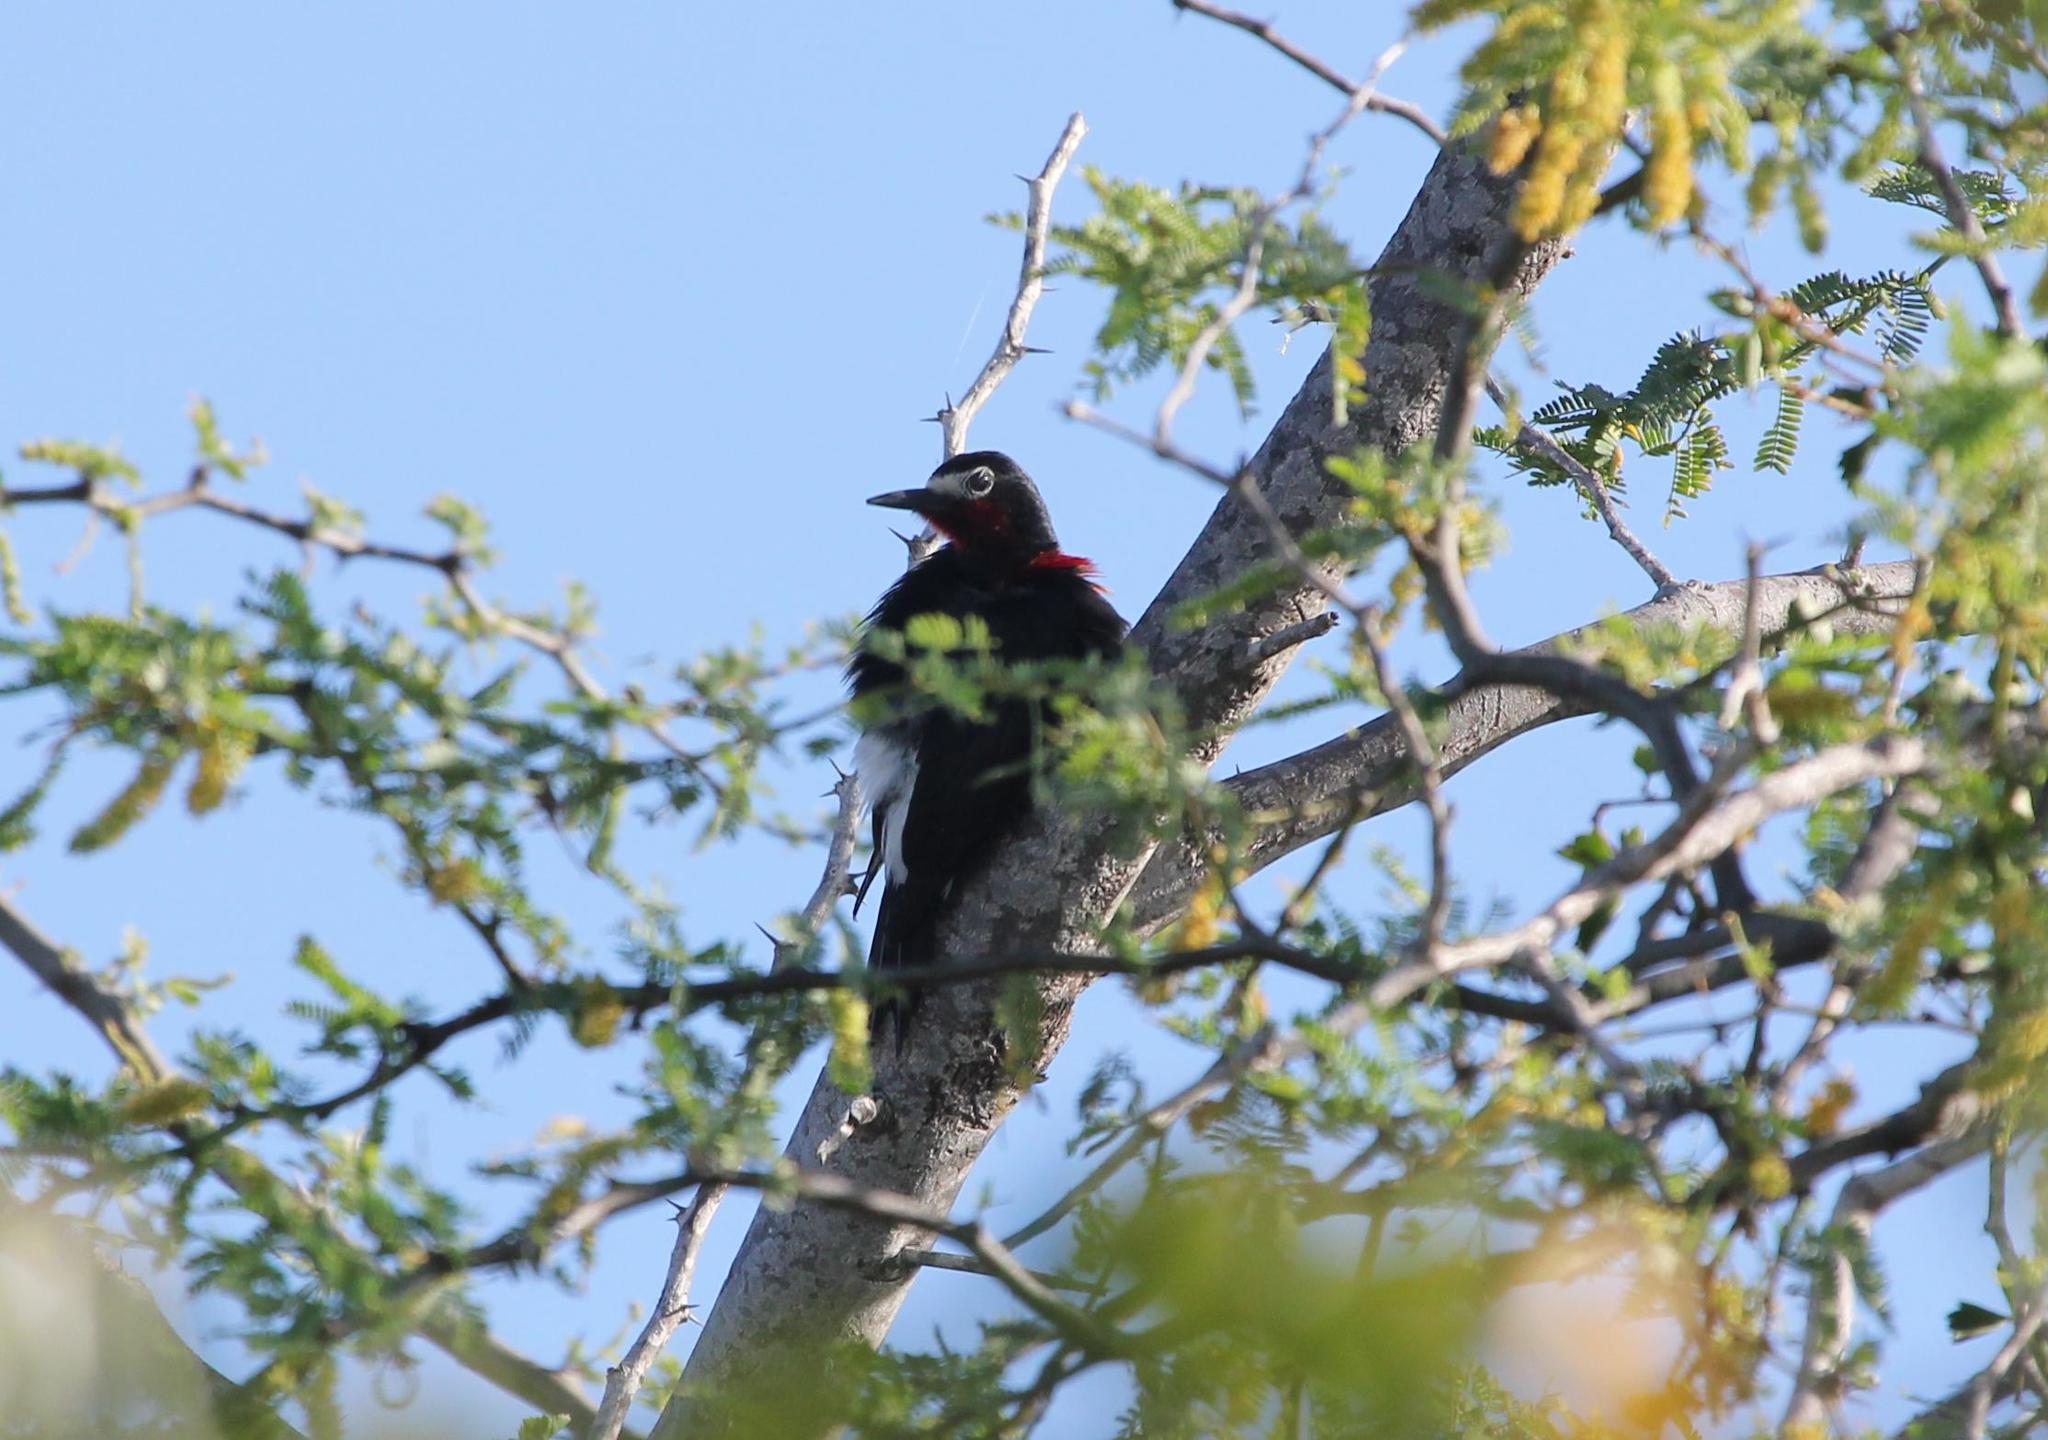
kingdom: Animalia
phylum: Chordata
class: Aves
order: Piciformes
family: Picidae
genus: Melanerpes
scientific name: Melanerpes portoricensis
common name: Puerto rican woodpecker
